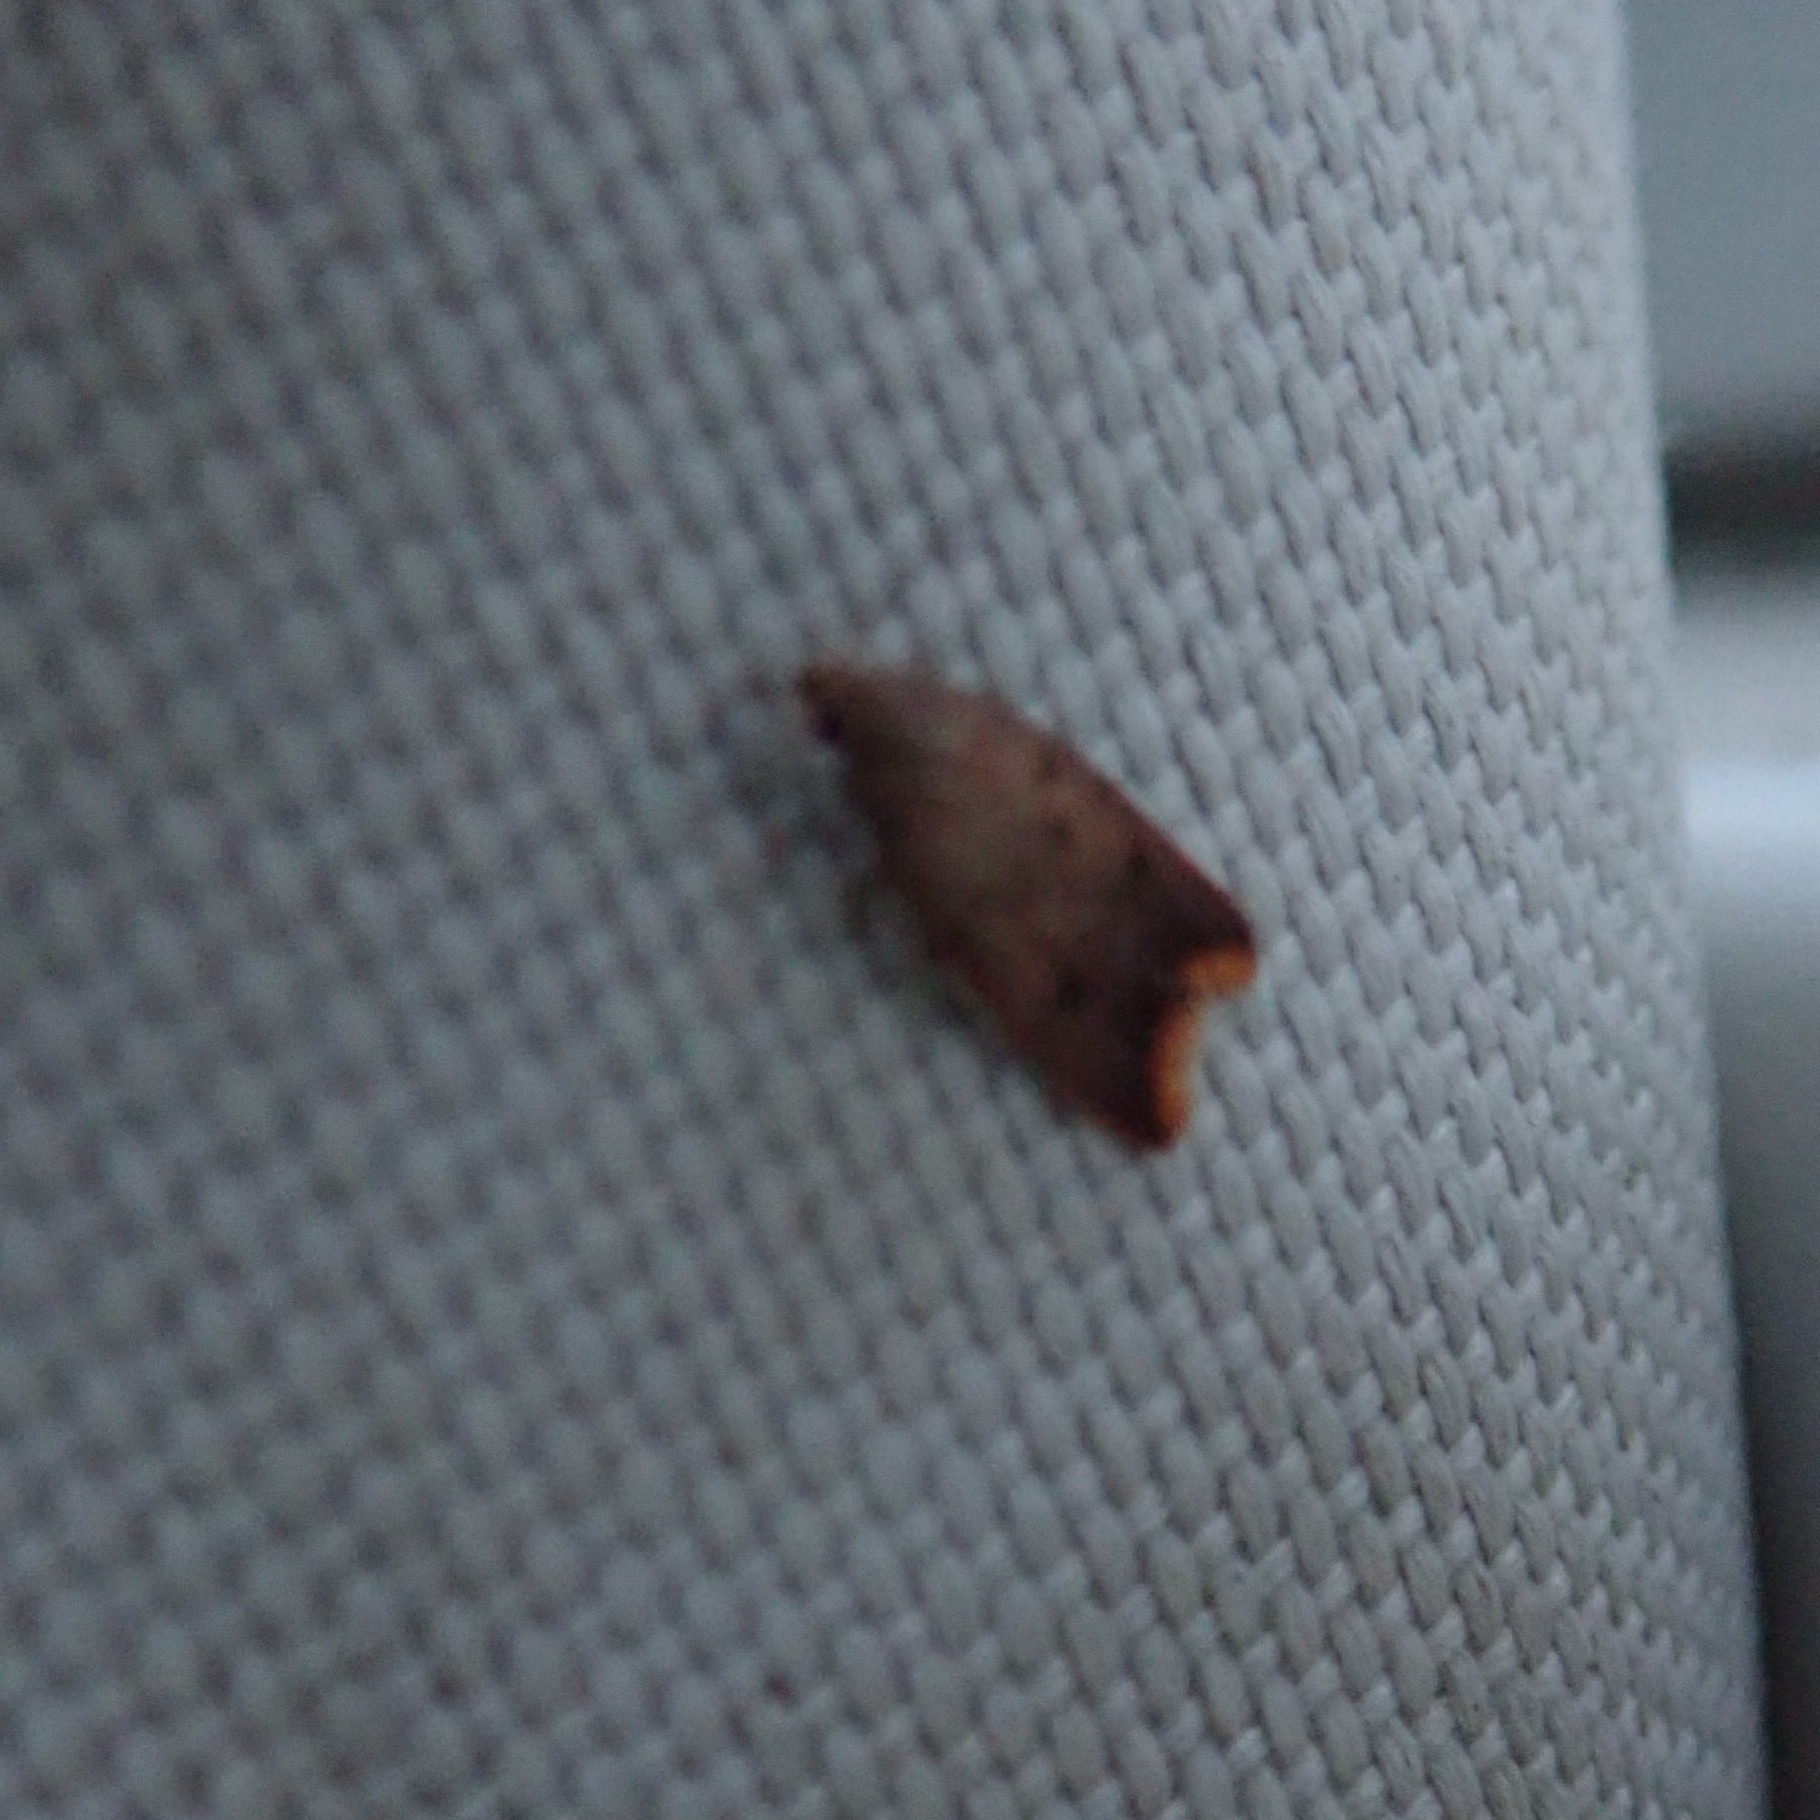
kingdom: Animalia
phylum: Arthropoda
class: Insecta
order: Lepidoptera
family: Oecophoridae
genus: Tachystola
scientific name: Tachystola acroxantha
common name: Ruddy streak
